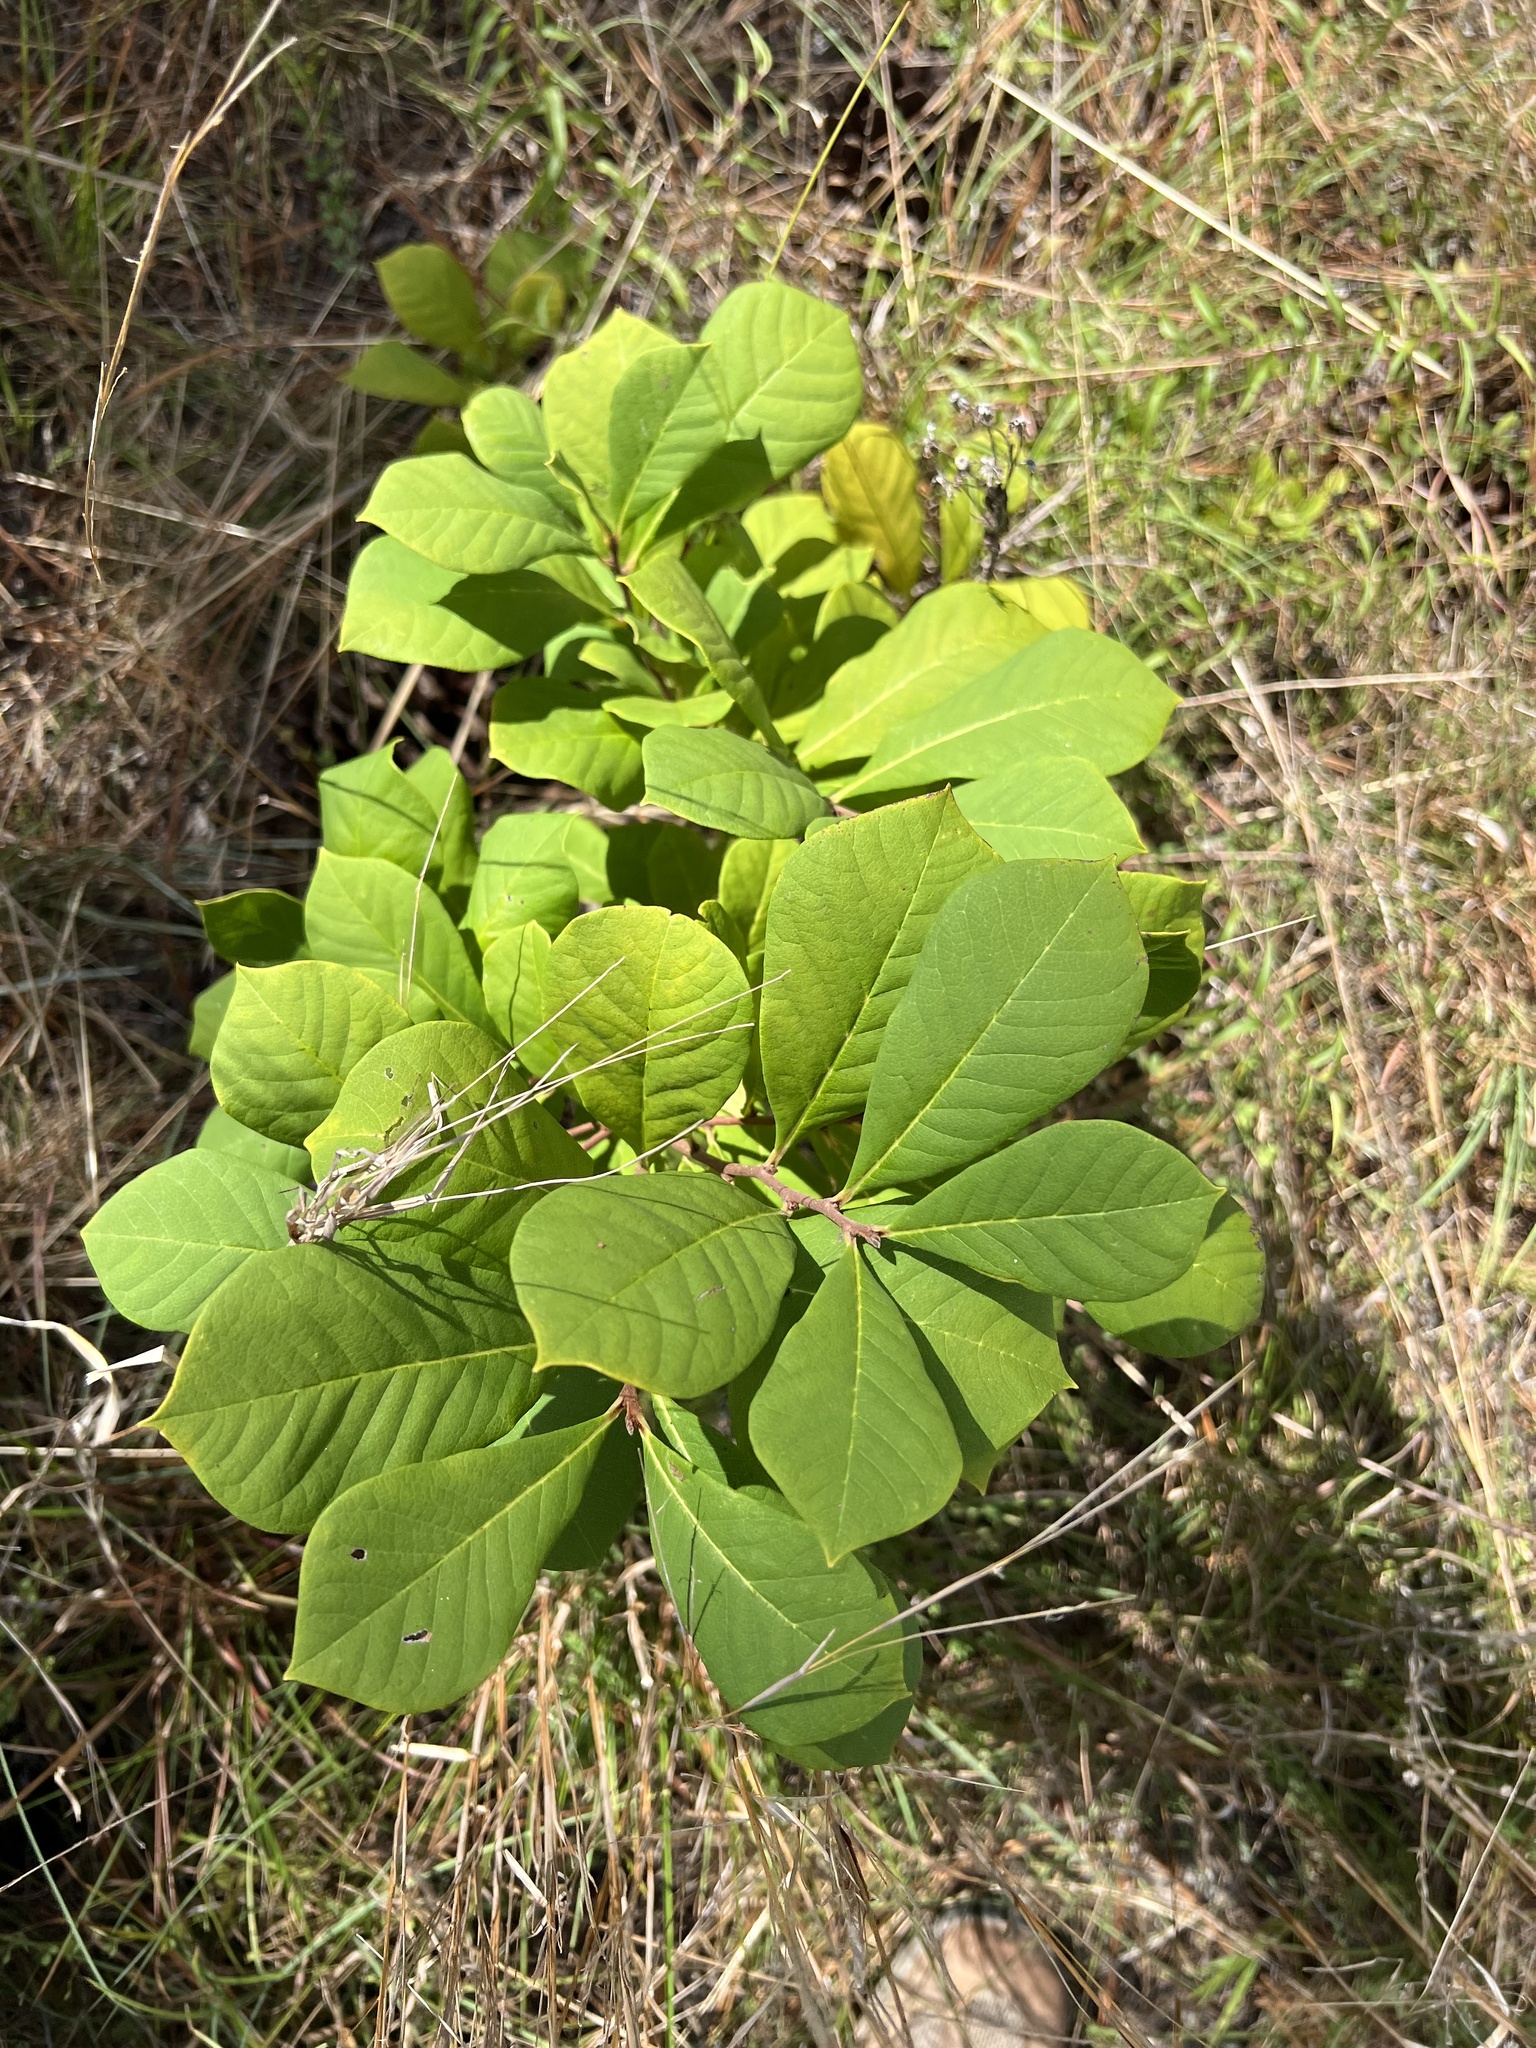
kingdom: Plantae
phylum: Tracheophyta
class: Magnoliopsida
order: Magnoliales
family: Annonaceae
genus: Asimina
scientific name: Asimina parviflora
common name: Dwarf pawpaw
